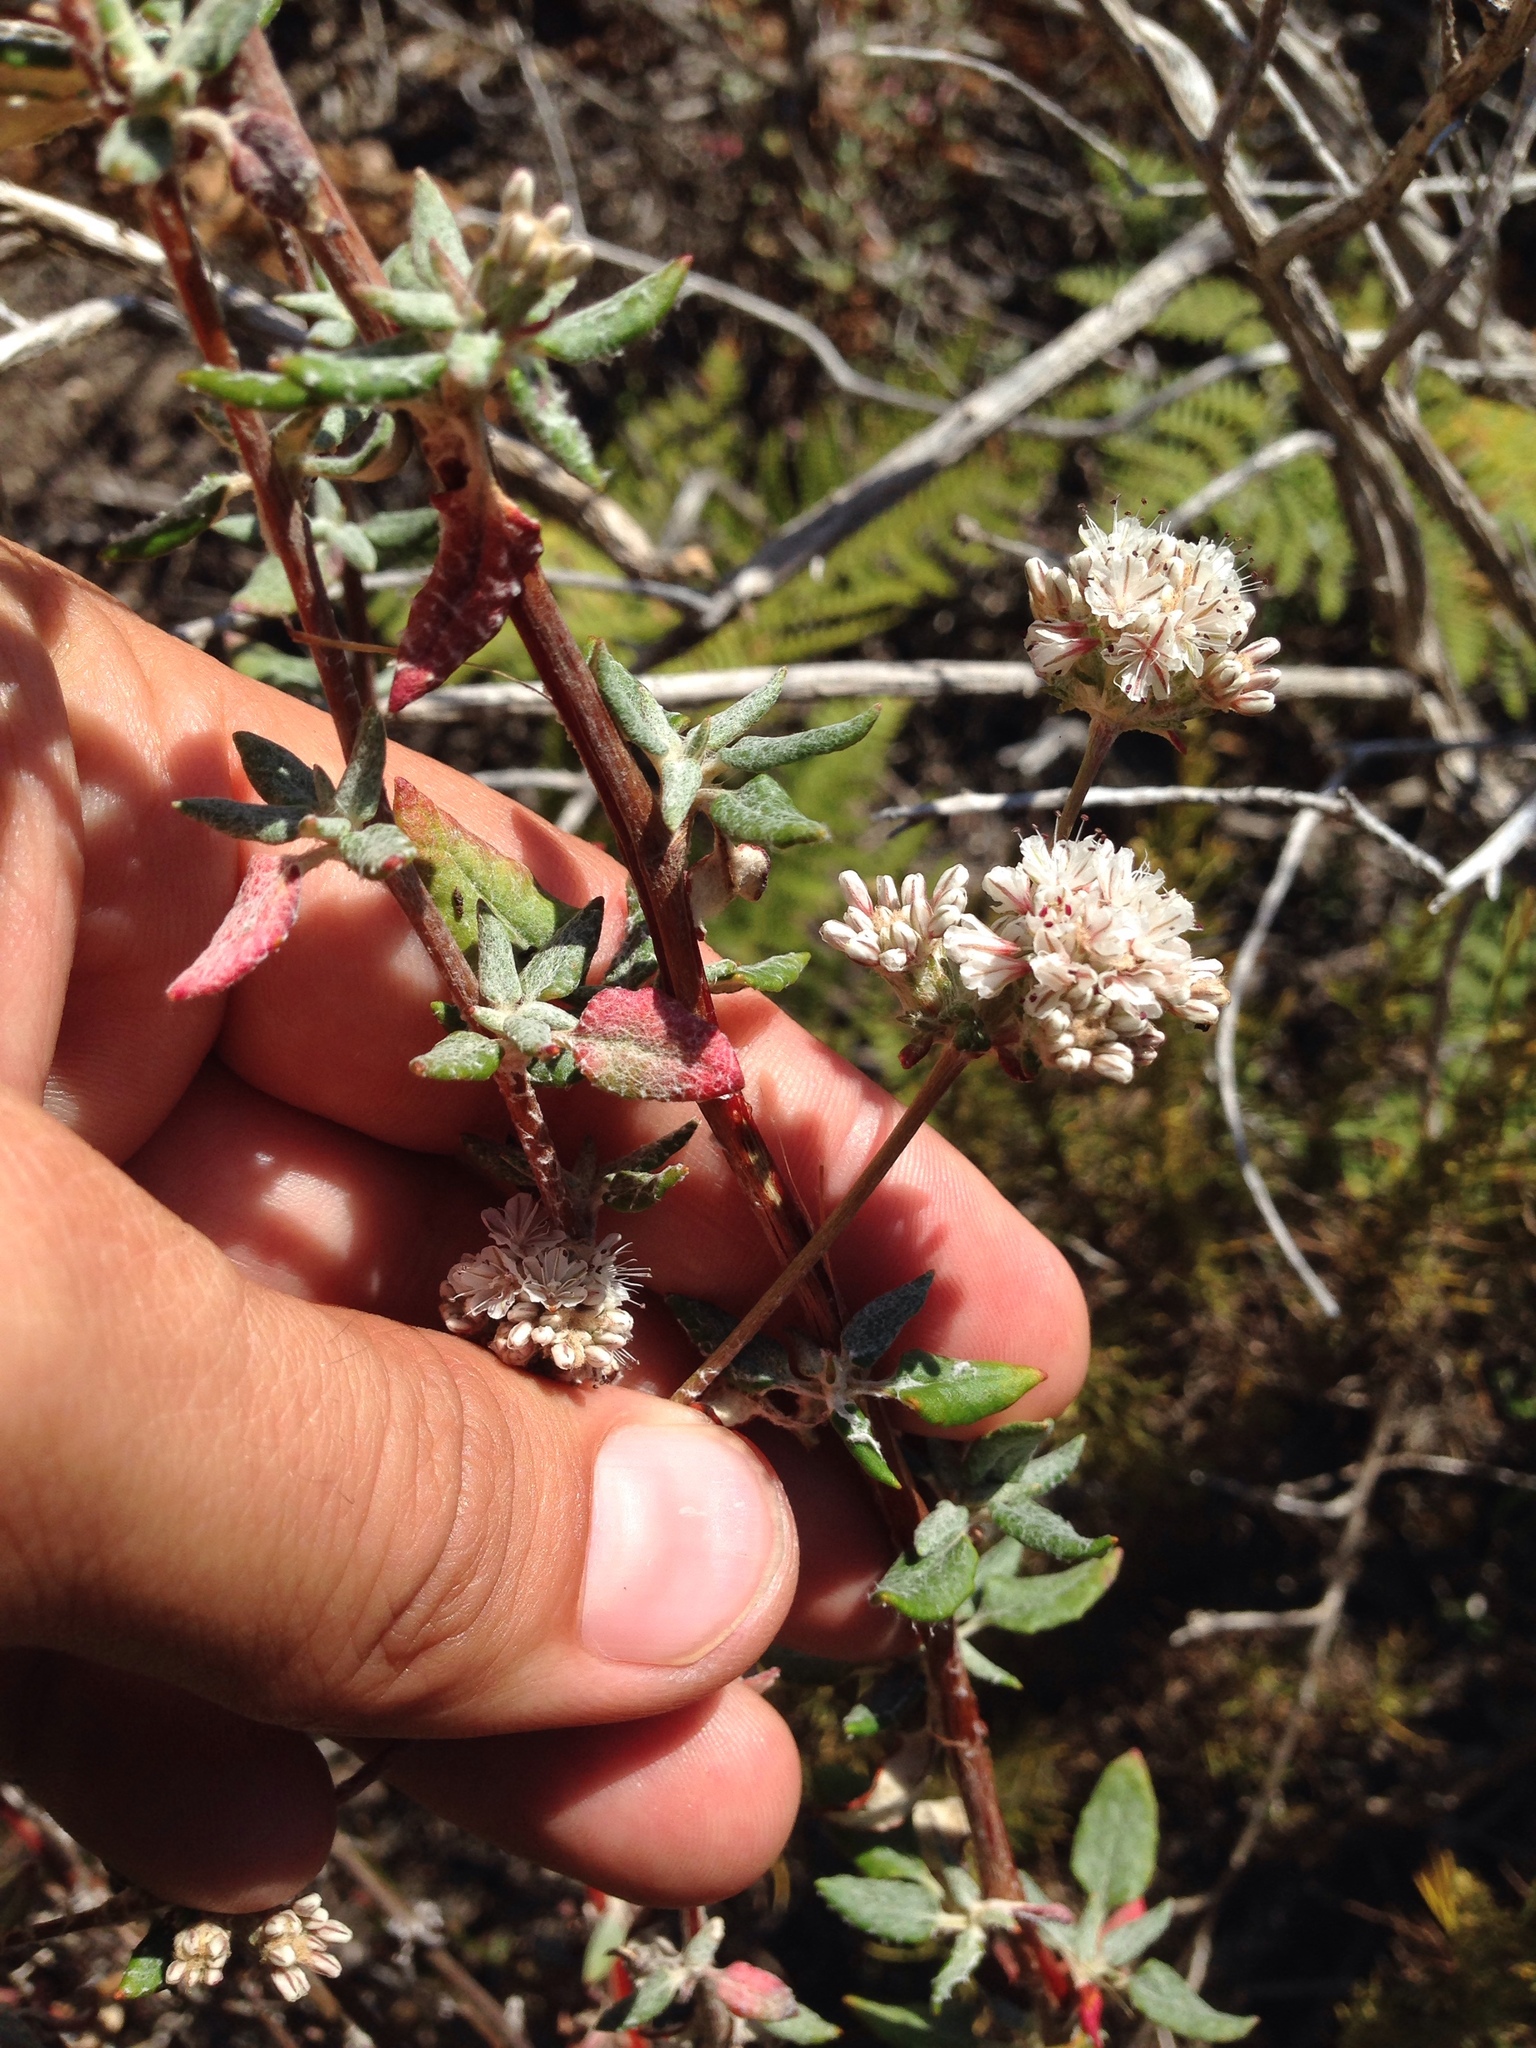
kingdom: Plantae
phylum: Tracheophyta
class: Magnoliopsida
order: Caryophyllales
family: Polygonaceae
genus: Eriogonum
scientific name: Eriogonum parvifolium
